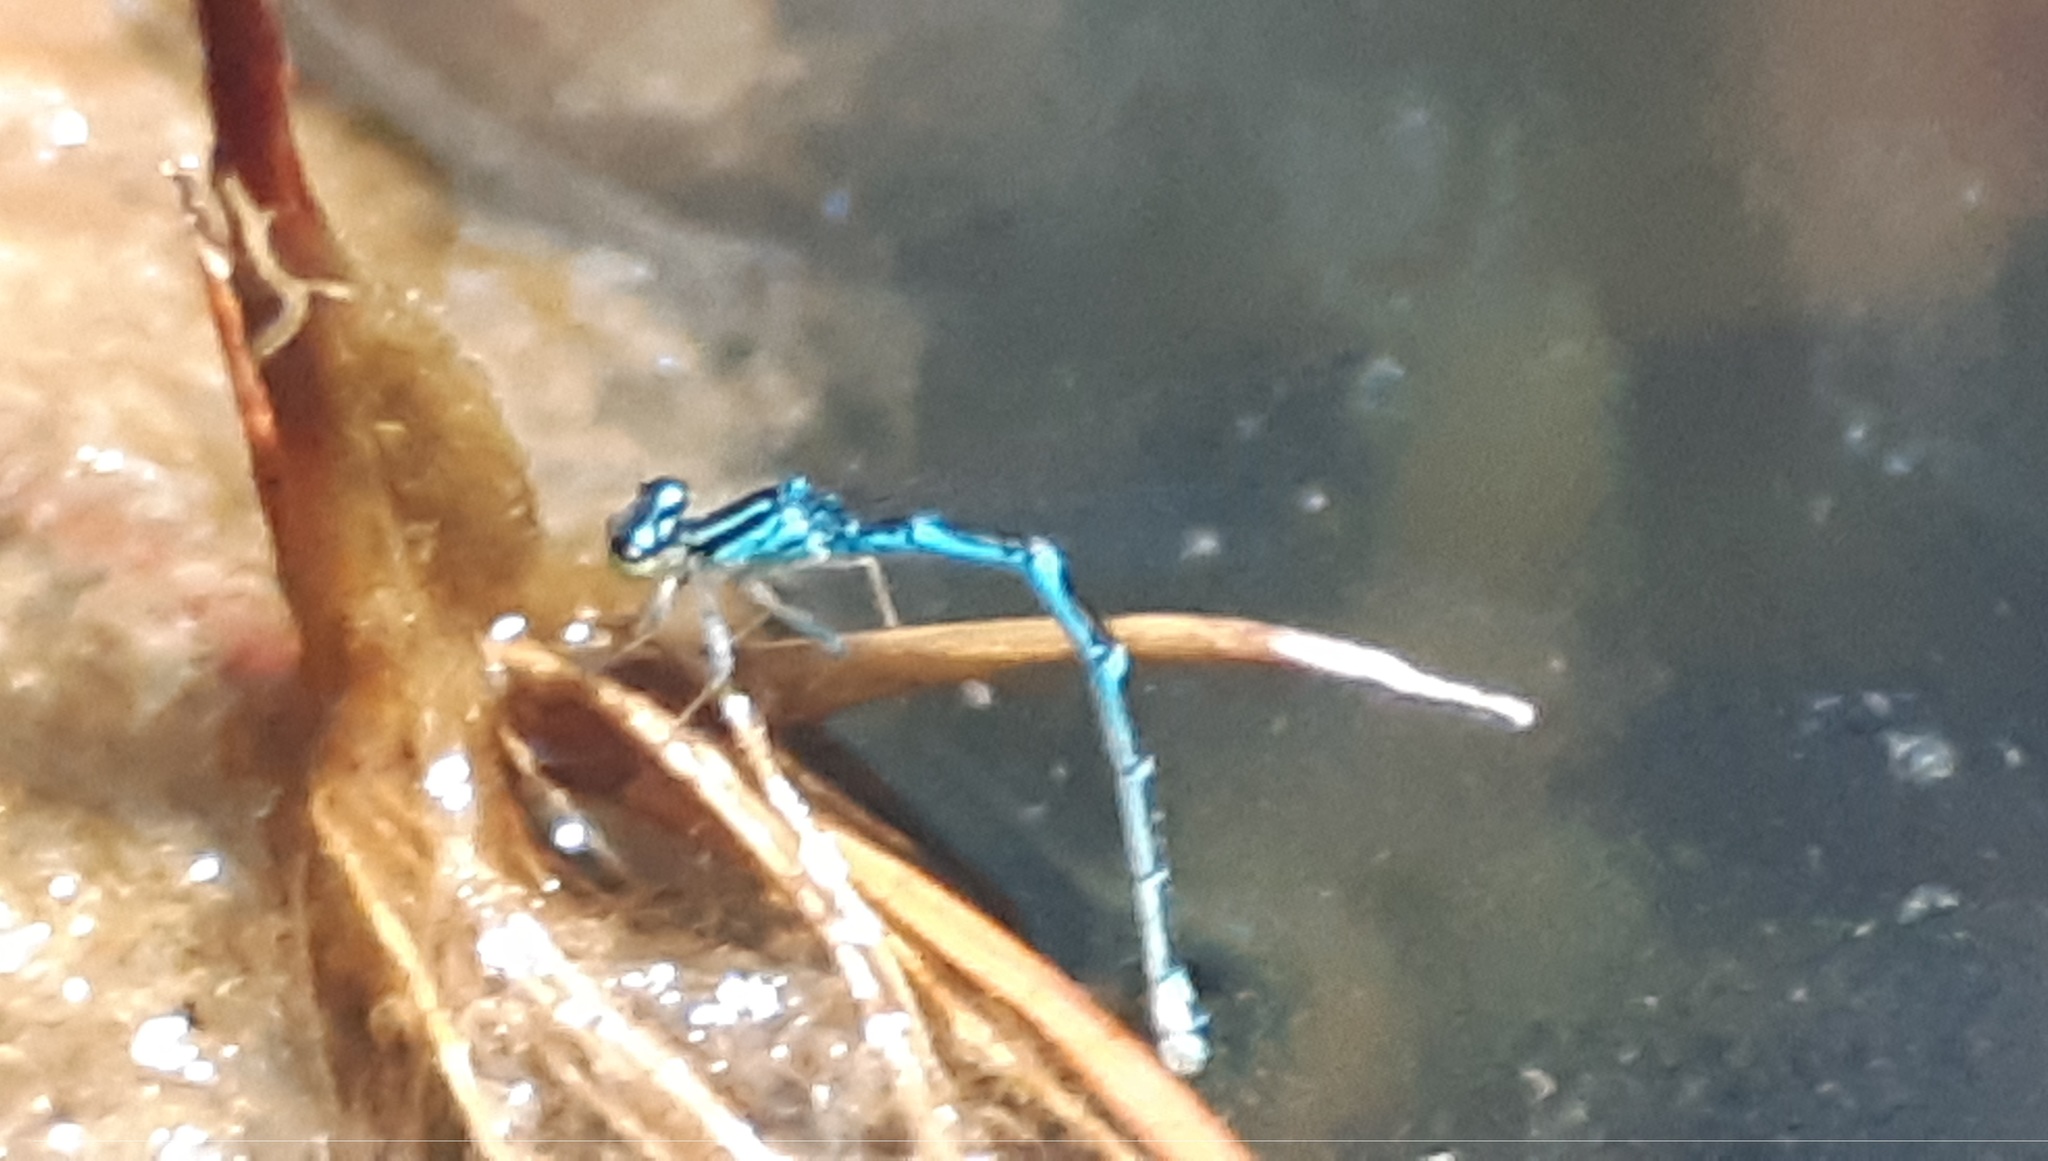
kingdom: Animalia
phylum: Arthropoda
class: Insecta
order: Odonata
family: Coenagrionidae
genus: Coenagrion
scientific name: Coenagrion scitulum
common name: Dainty bluet
